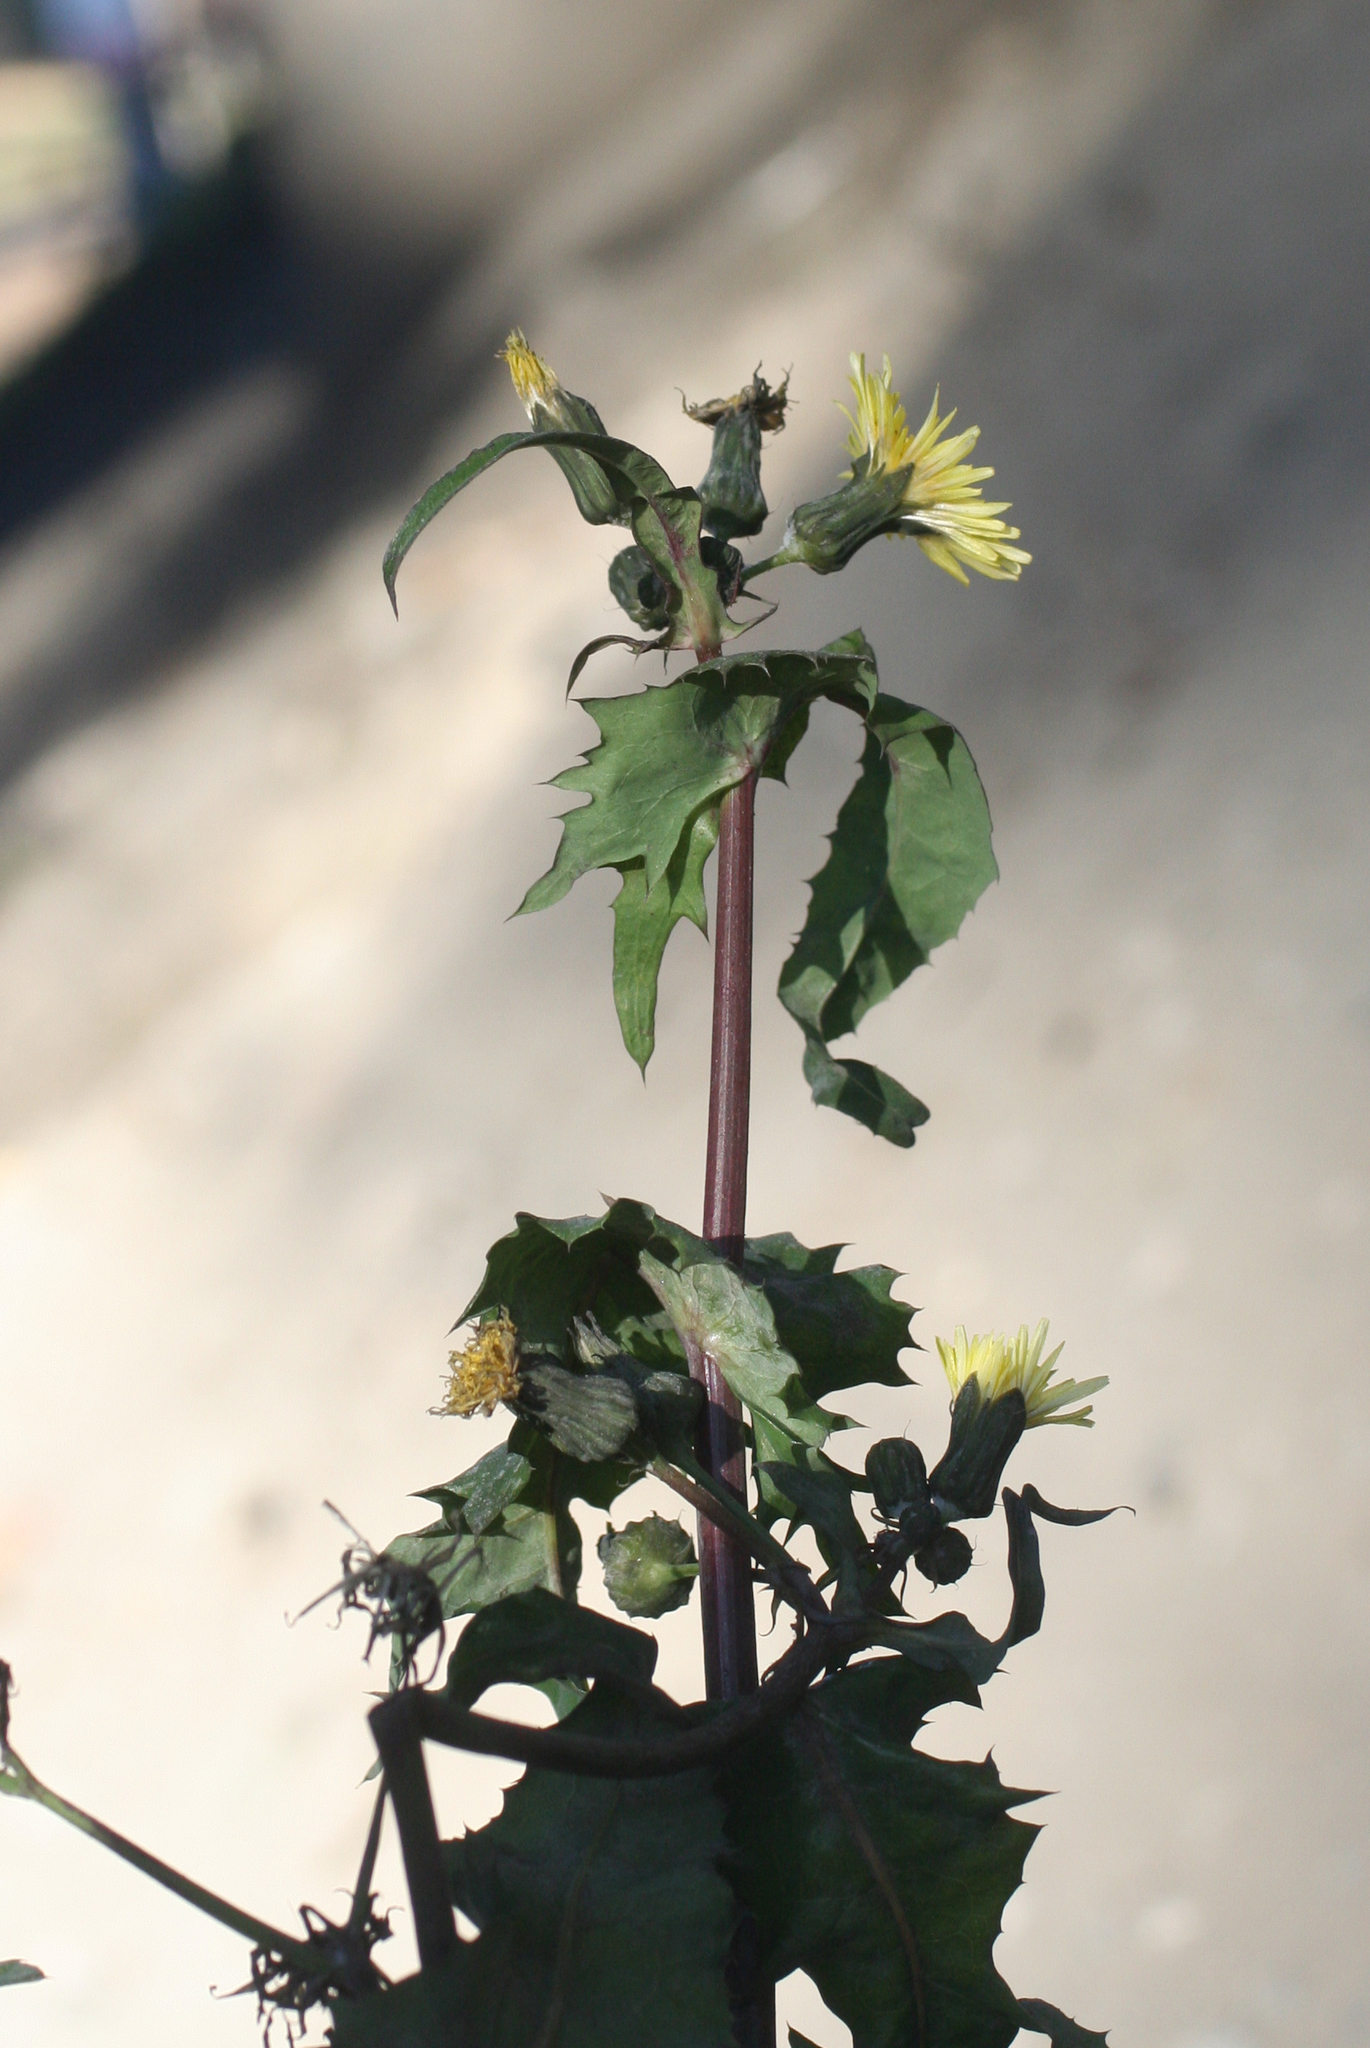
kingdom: Plantae
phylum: Tracheophyta
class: Magnoliopsida
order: Asterales
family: Asteraceae
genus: Sonchus
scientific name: Sonchus oleraceus
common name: Common sowthistle
